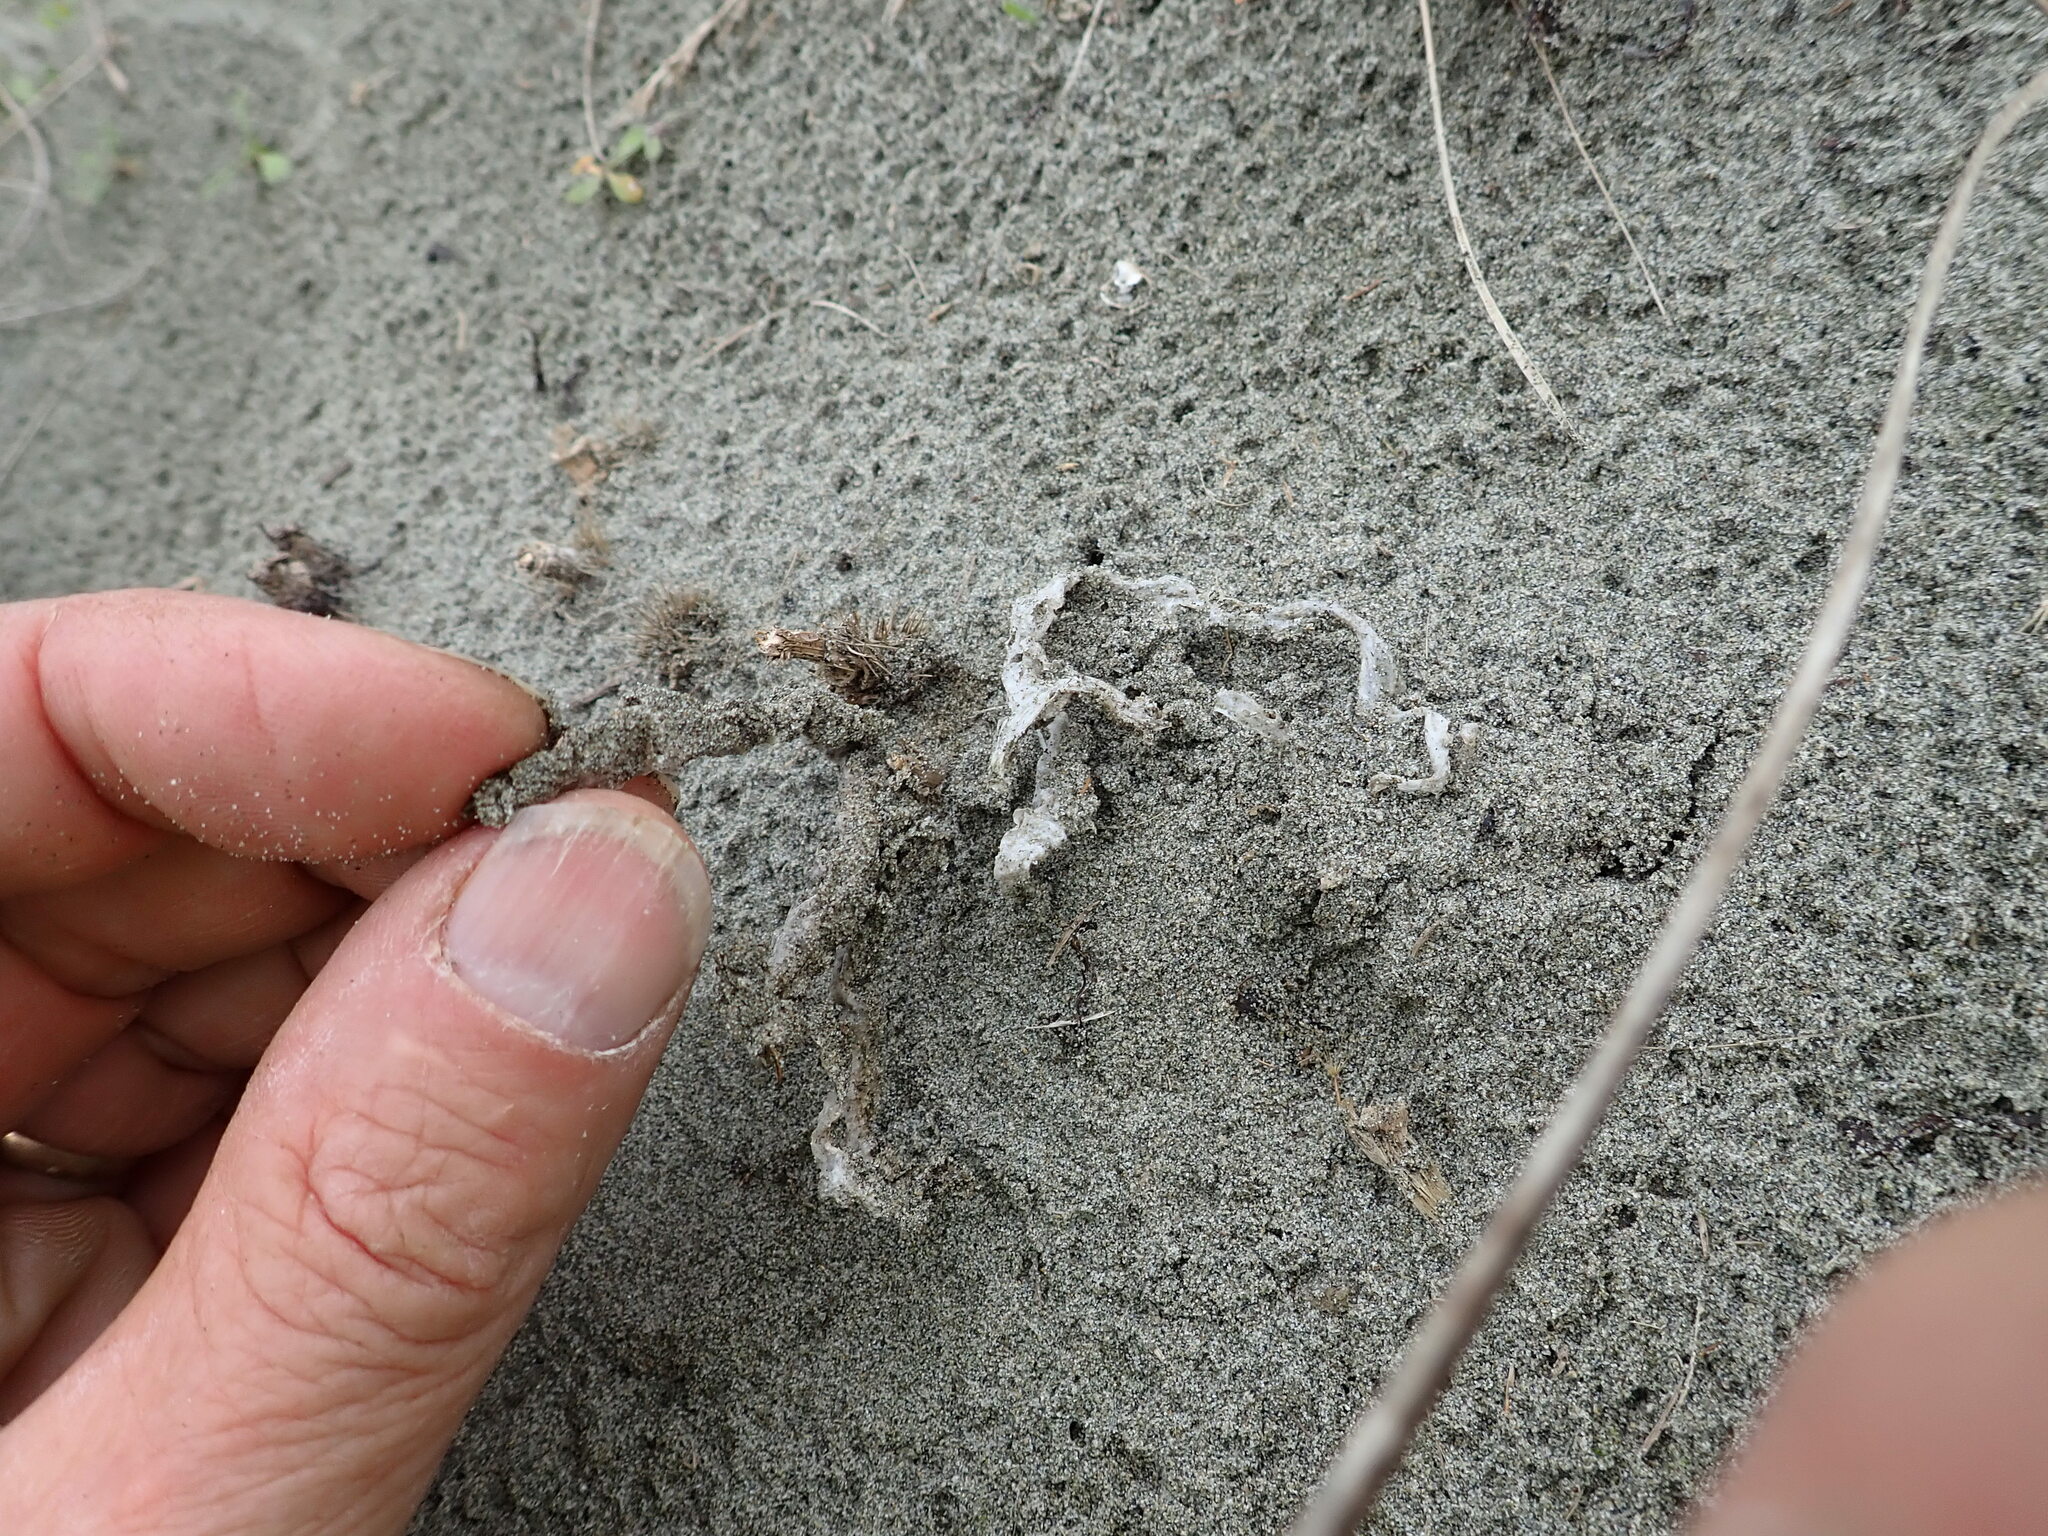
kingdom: Fungi
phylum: Basidiomycota
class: Agaricomycetes
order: Phallales
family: Phallaceae
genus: Ileodictyon
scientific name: Ileodictyon cibarium
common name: Basket fungus
